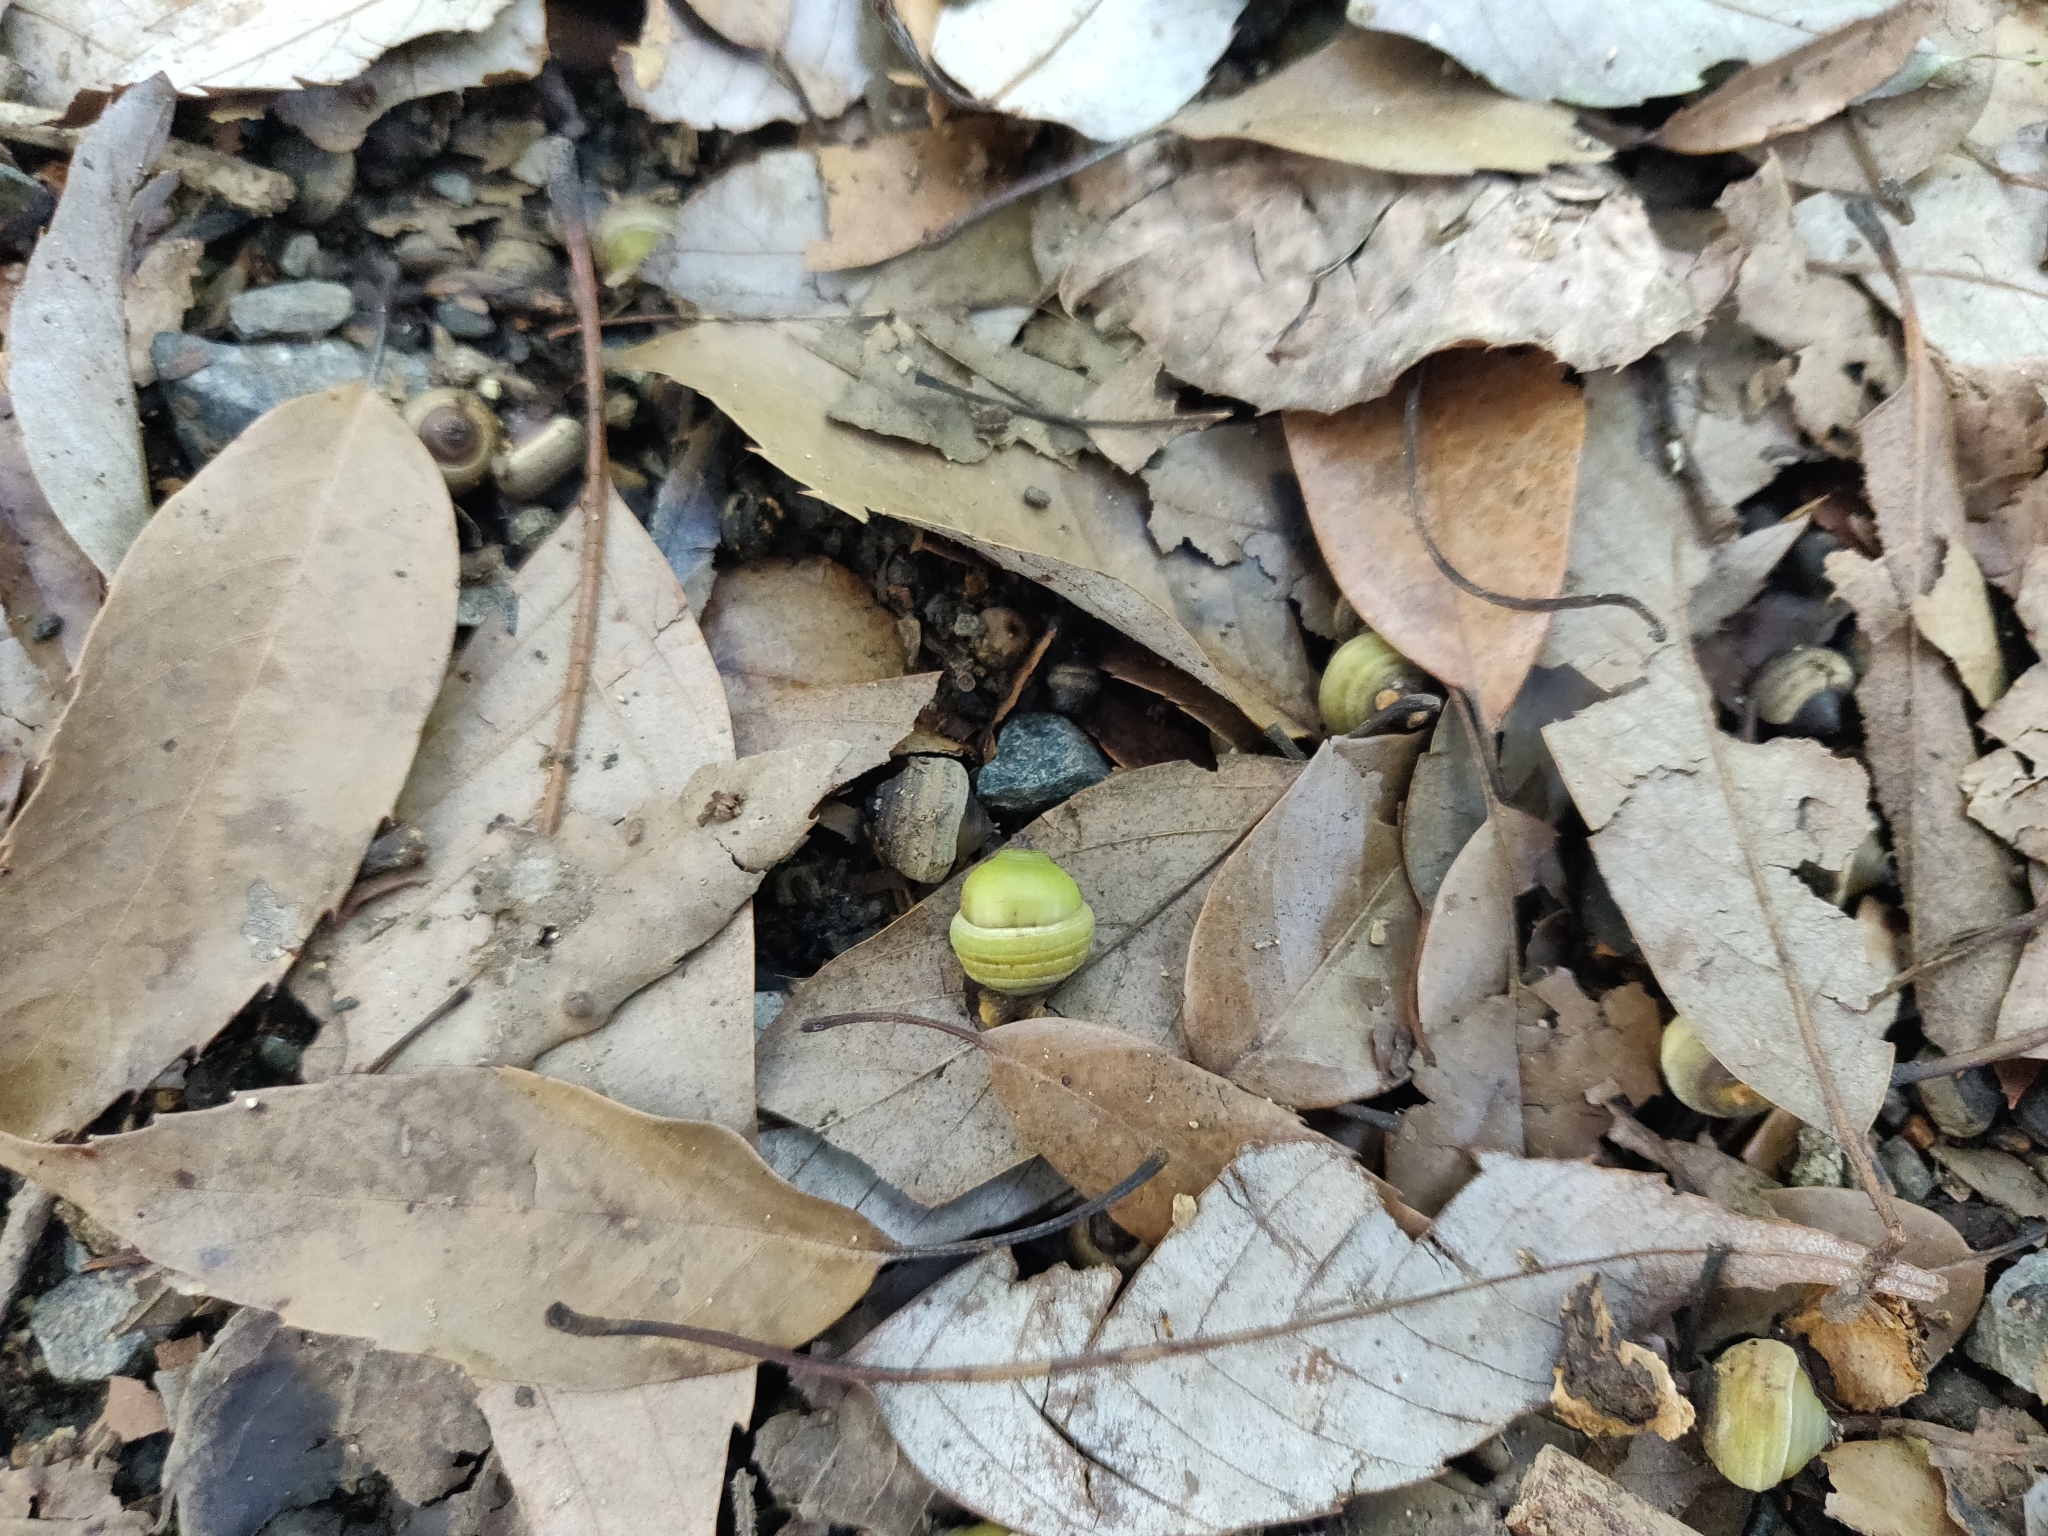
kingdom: Plantae
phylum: Tracheophyta
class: Magnoliopsida
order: Fagales
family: Fagaceae
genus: Quercus
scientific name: Quercus glauca
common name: Ring-cup oak
